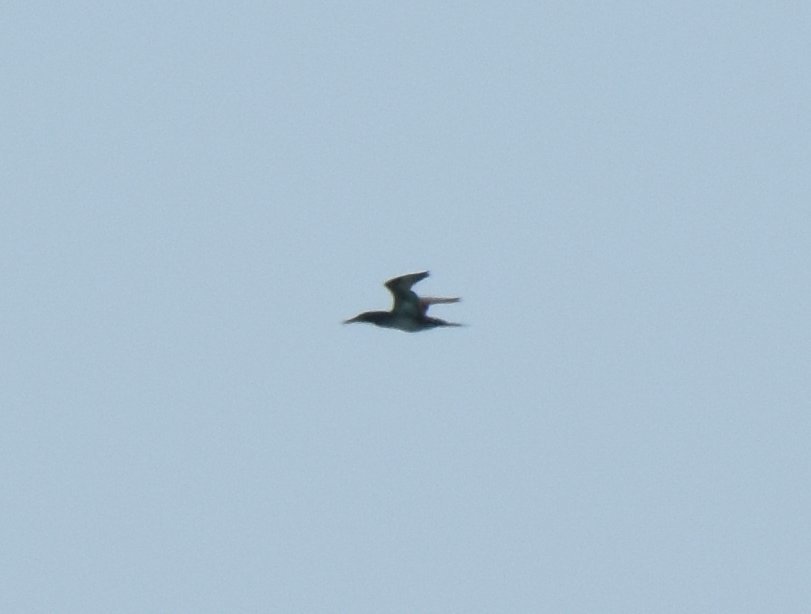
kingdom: Animalia
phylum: Chordata
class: Aves
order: Suliformes
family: Sulidae
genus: Morus
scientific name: Morus bassanus
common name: Northern gannet
